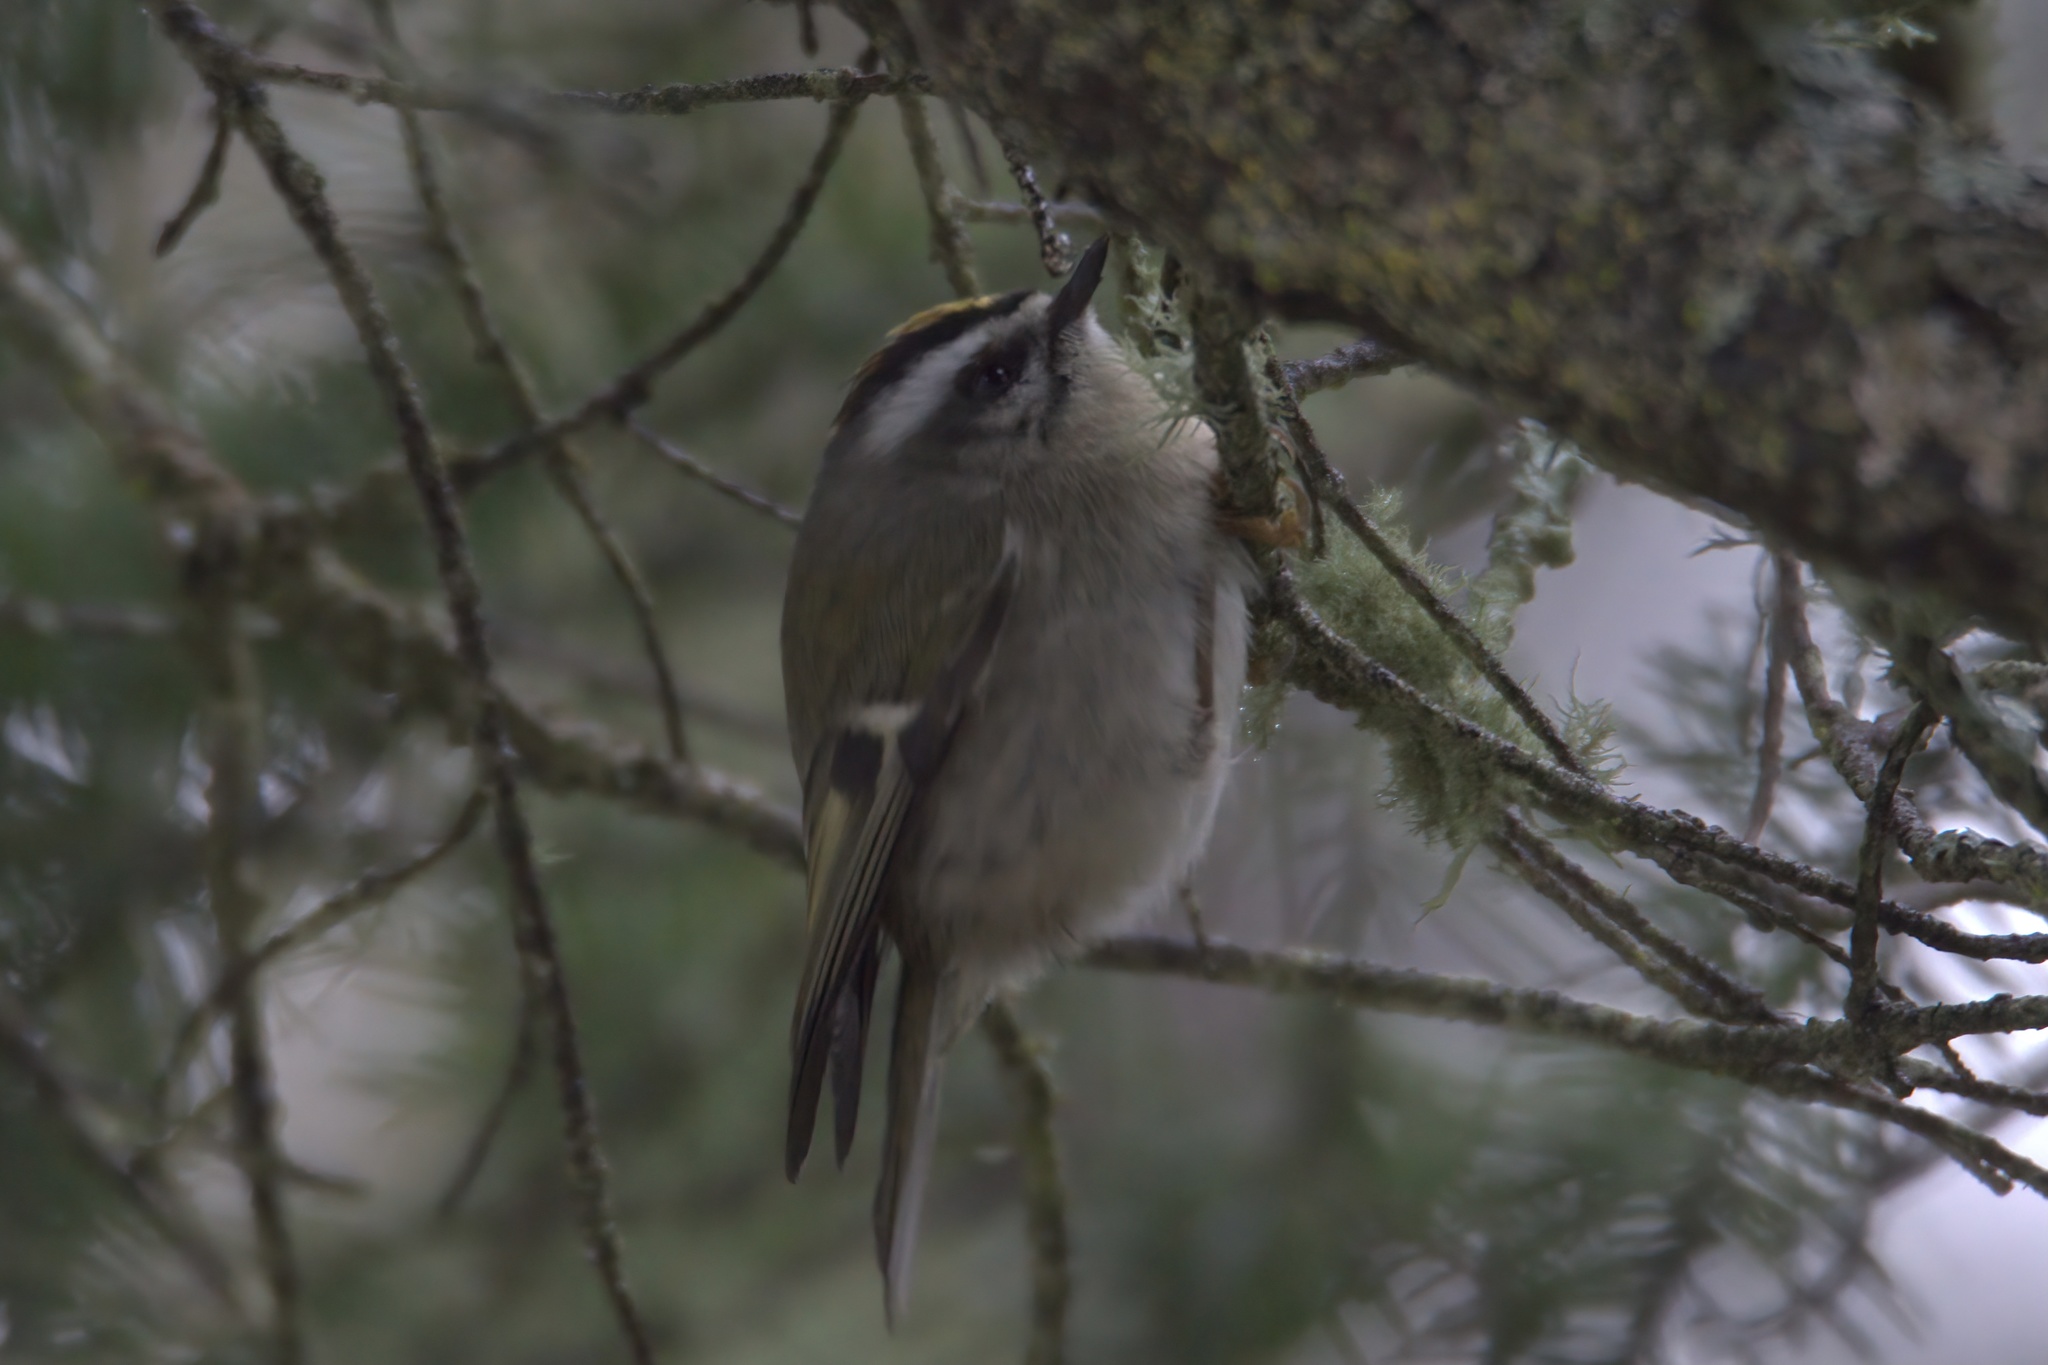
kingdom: Animalia
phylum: Chordata
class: Aves
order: Passeriformes
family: Regulidae
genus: Regulus
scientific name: Regulus satrapa
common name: Golden-crowned kinglet
